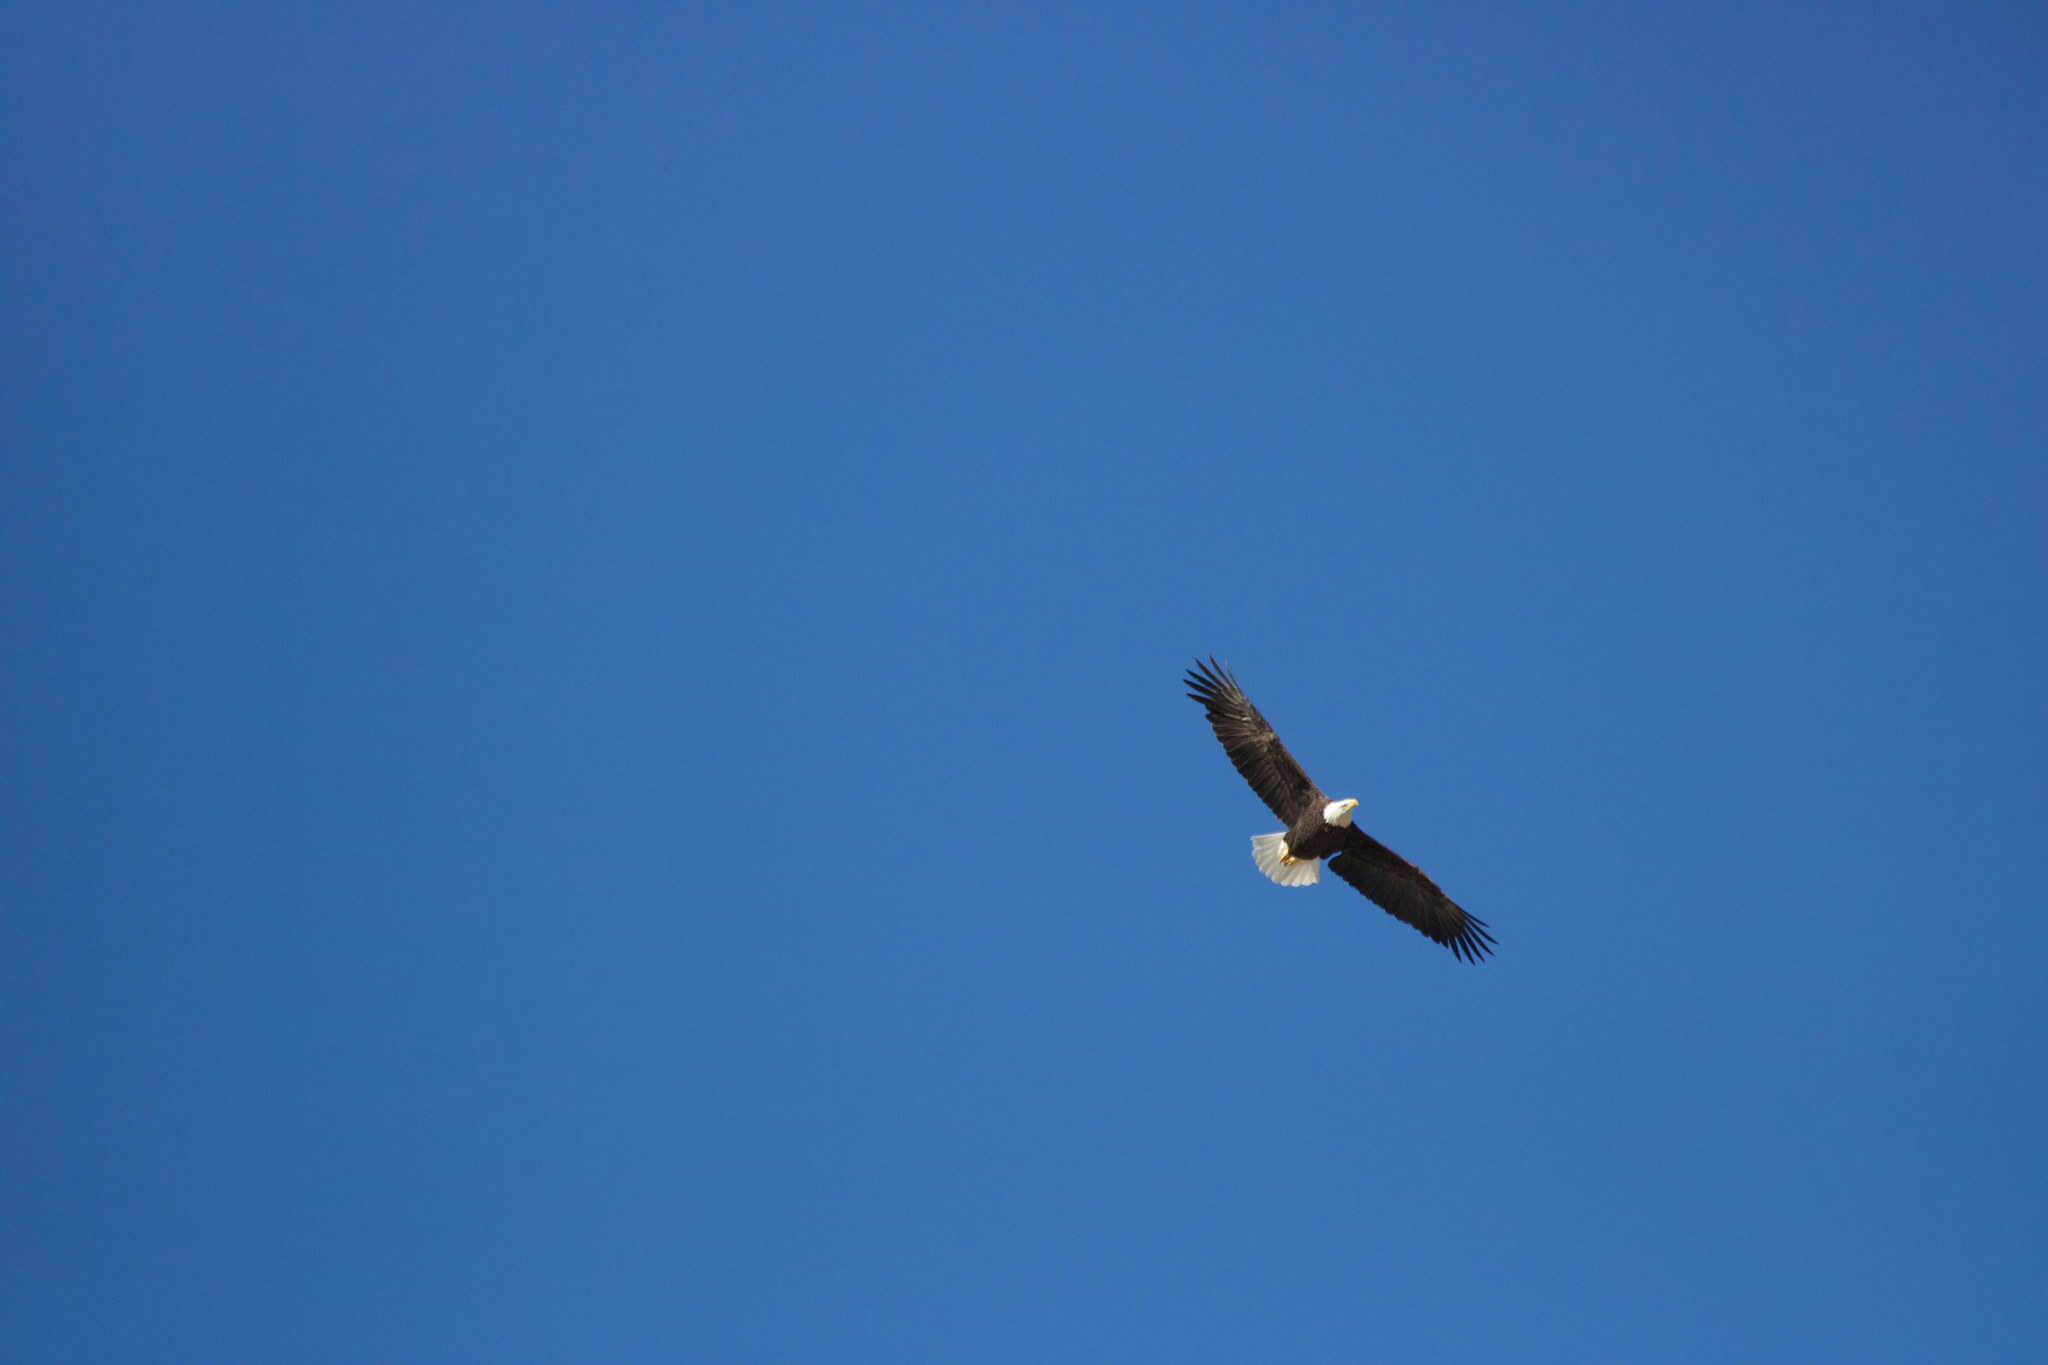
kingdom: Animalia
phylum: Chordata
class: Aves
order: Accipitriformes
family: Accipitridae
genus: Haliaeetus
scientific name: Haliaeetus leucocephalus
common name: Bald eagle
